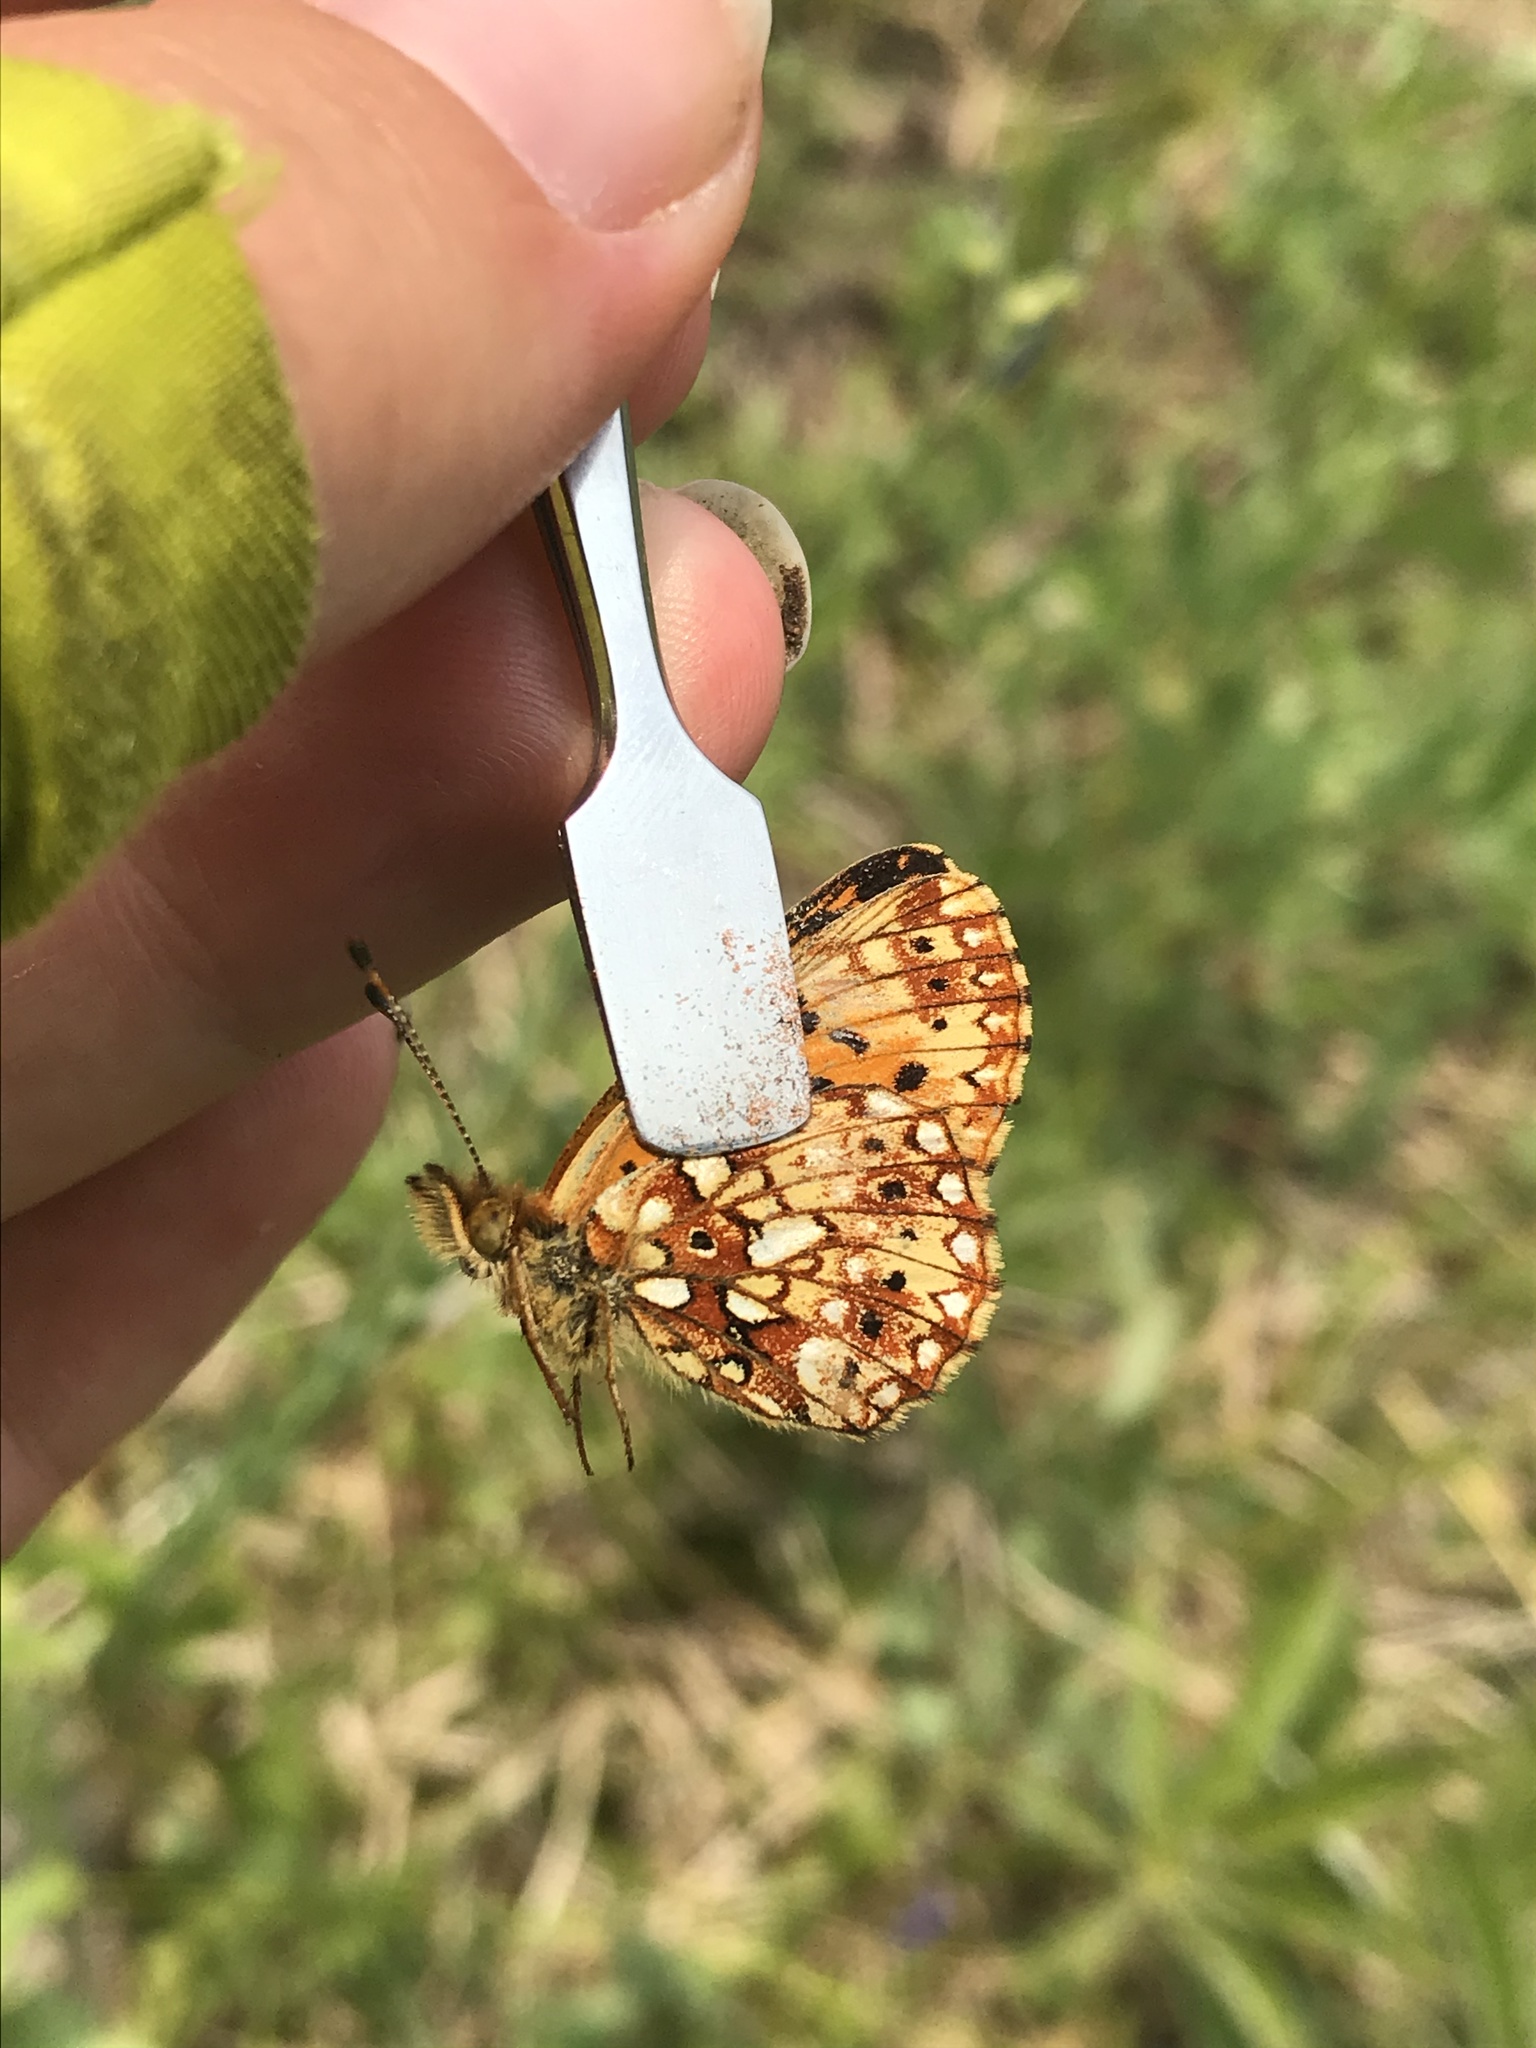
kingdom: Animalia
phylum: Arthropoda
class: Insecta
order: Lepidoptera
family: Nymphalidae
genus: Boloria
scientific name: Boloria
